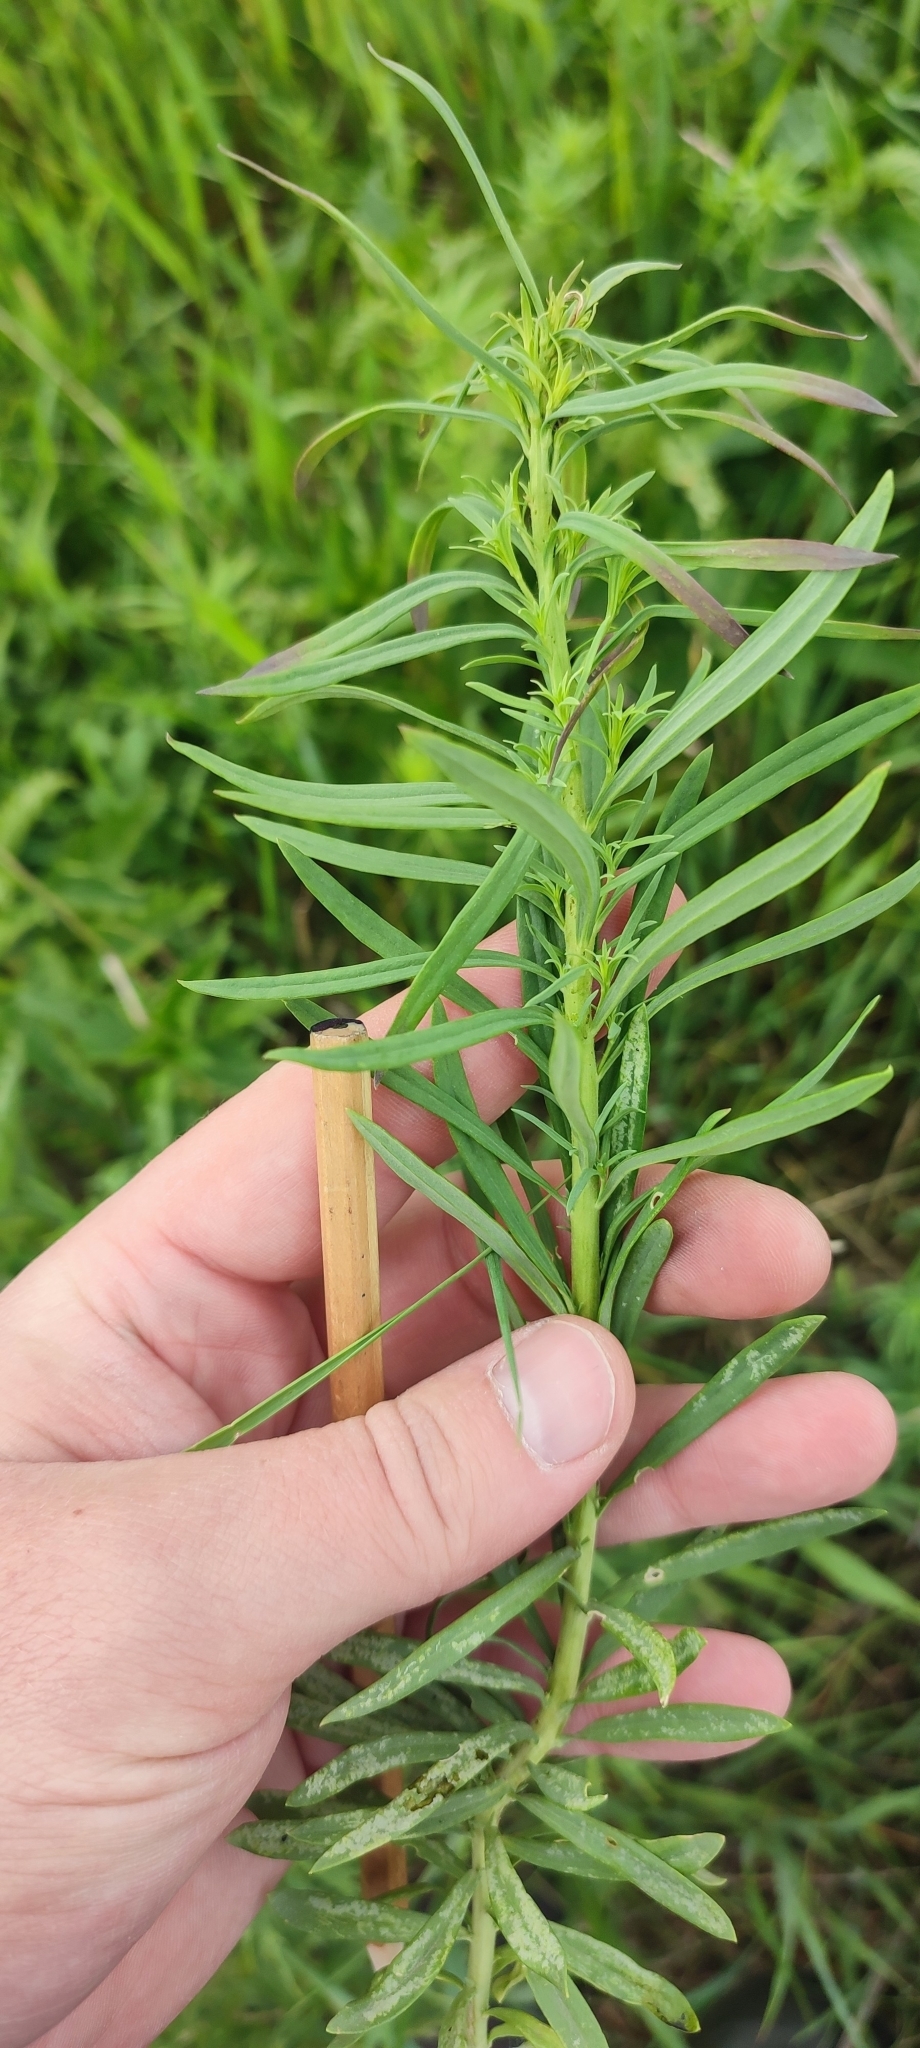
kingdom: Plantae
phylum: Tracheophyta
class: Magnoliopsida
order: Lamiales
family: Plantaginaceae
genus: Linaria
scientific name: Linaria vulgaris
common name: Butter and eggs
